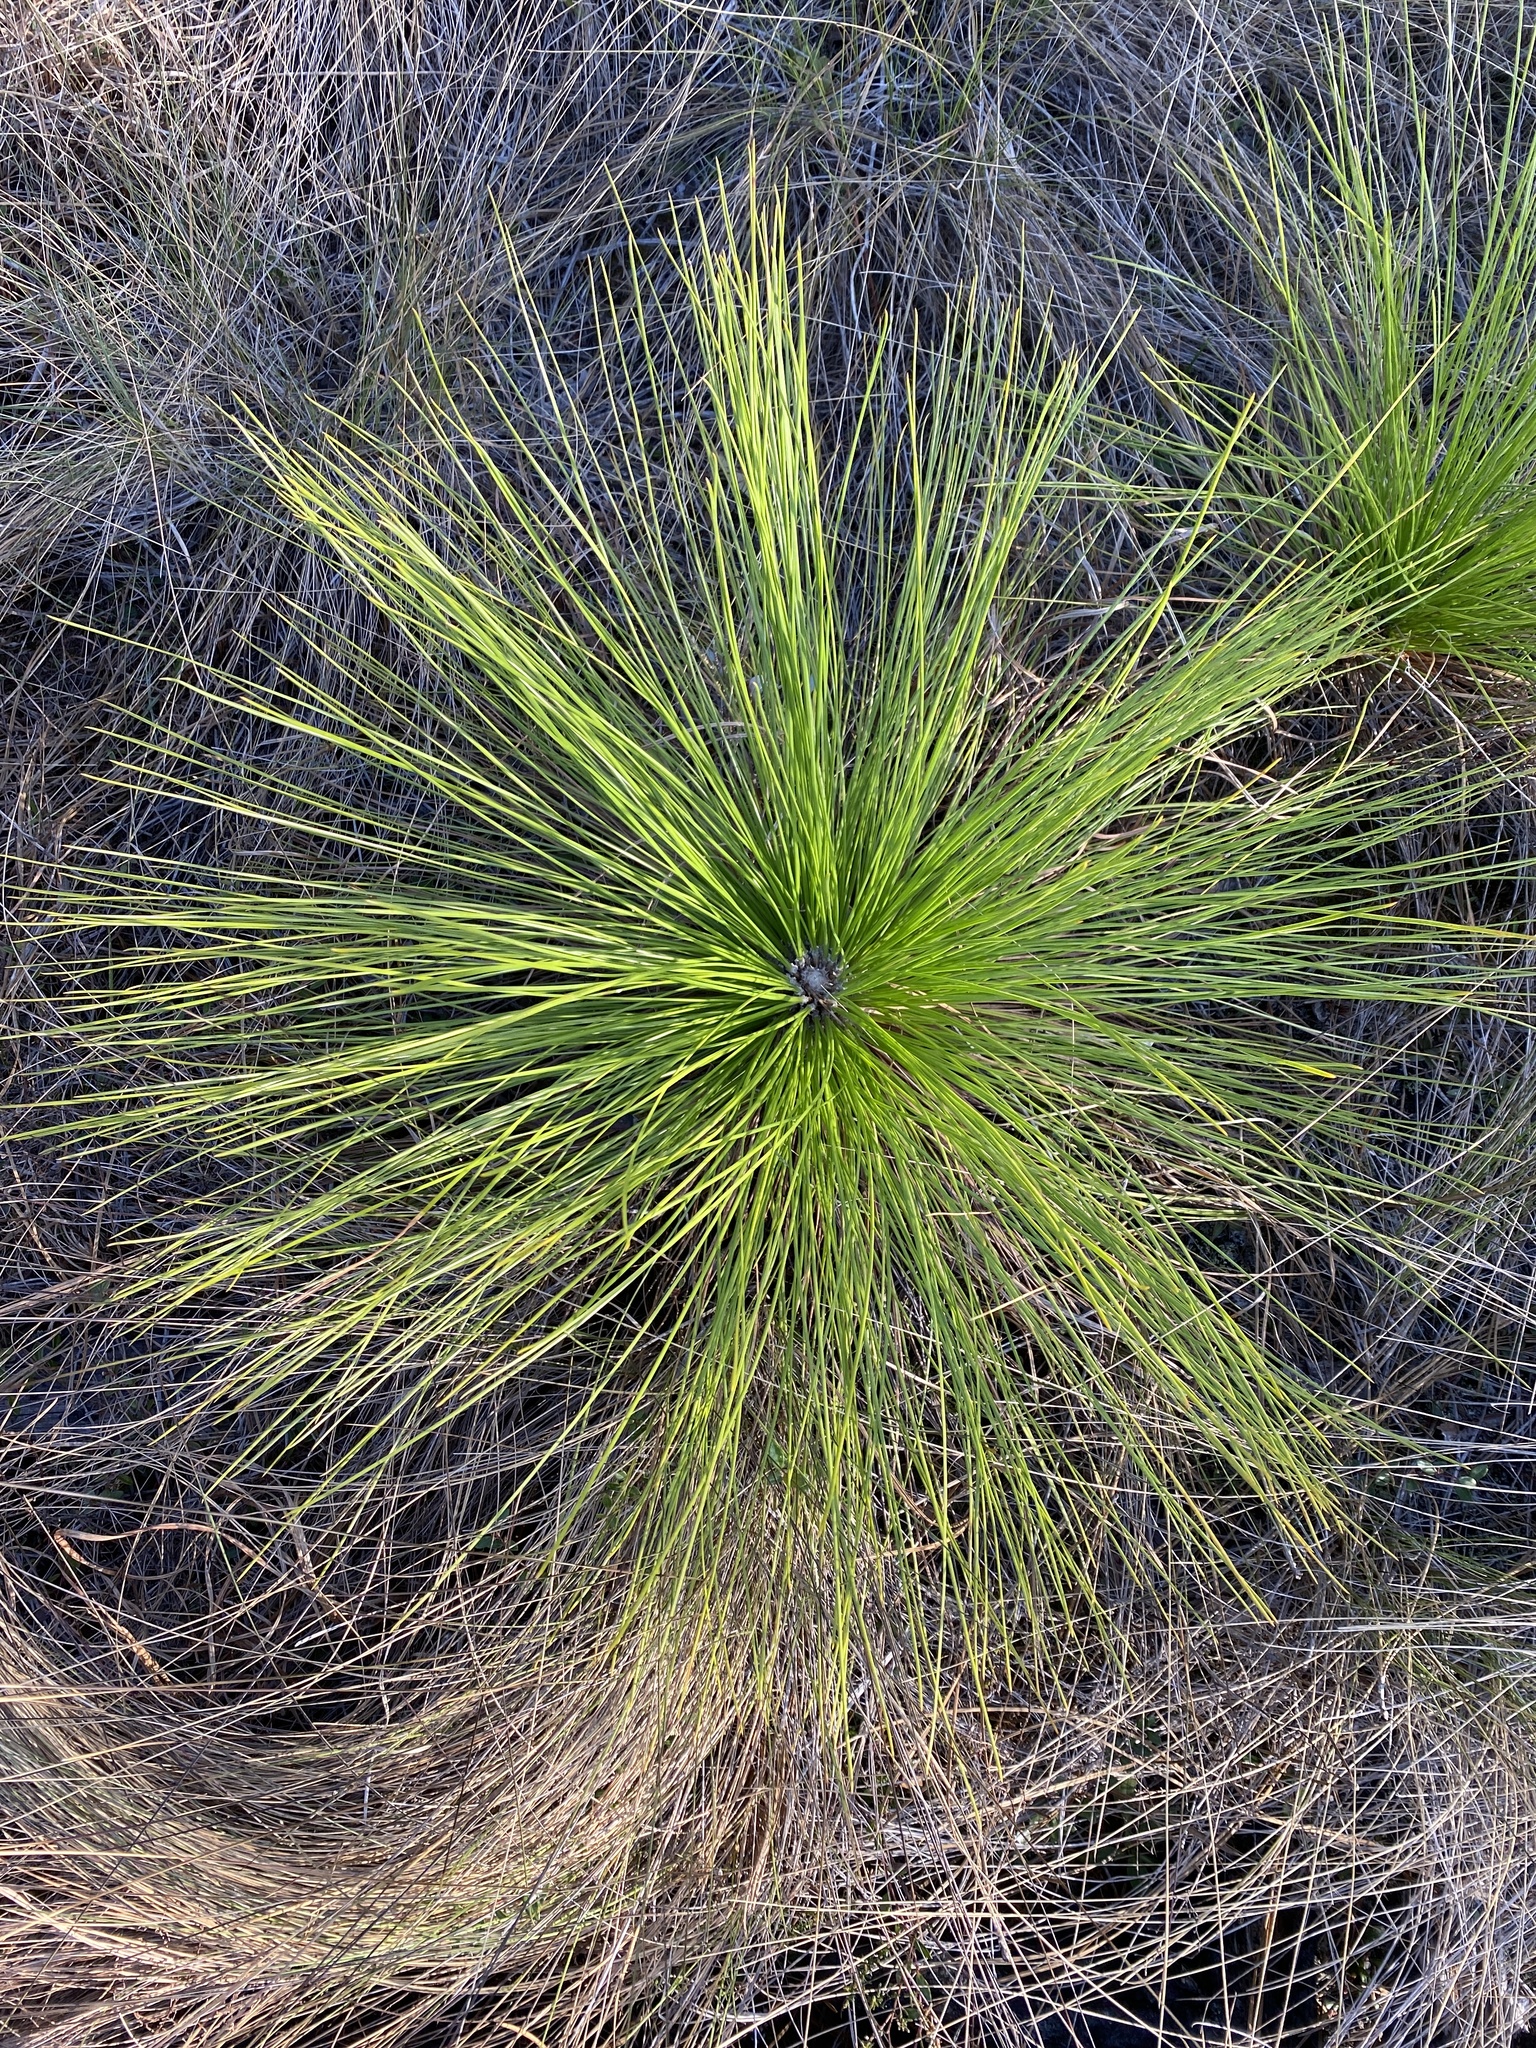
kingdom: Plantae
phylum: Tracheophyta
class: Pinopsida
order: Pinales
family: Pinaceae
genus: Pinus
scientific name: Pinus palustris
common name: Longleaf pine
